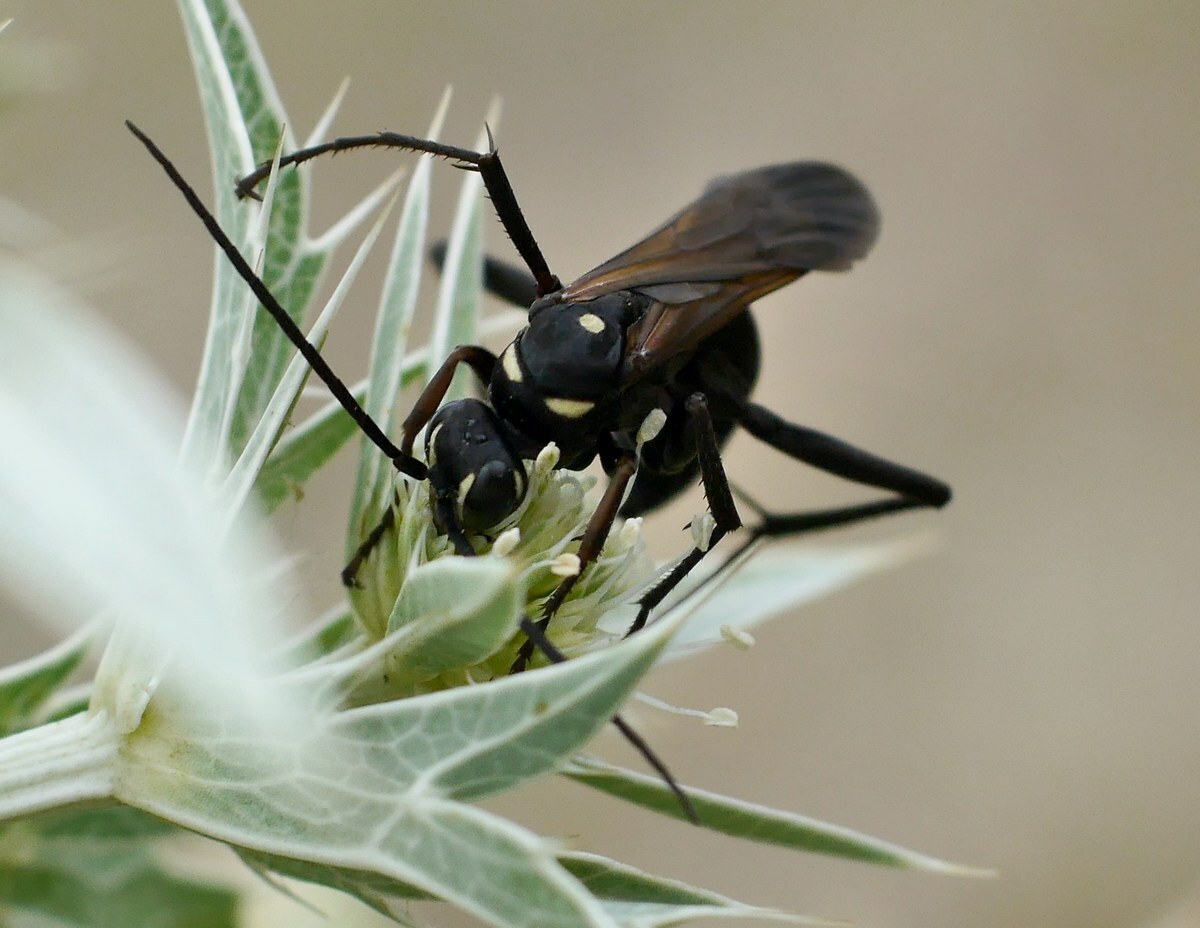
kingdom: Animalia
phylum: Arthropoda
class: Insecta
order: Hymenoptera
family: Pompilidae
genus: Cryptocheilus
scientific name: Cryptocheilus egregius
